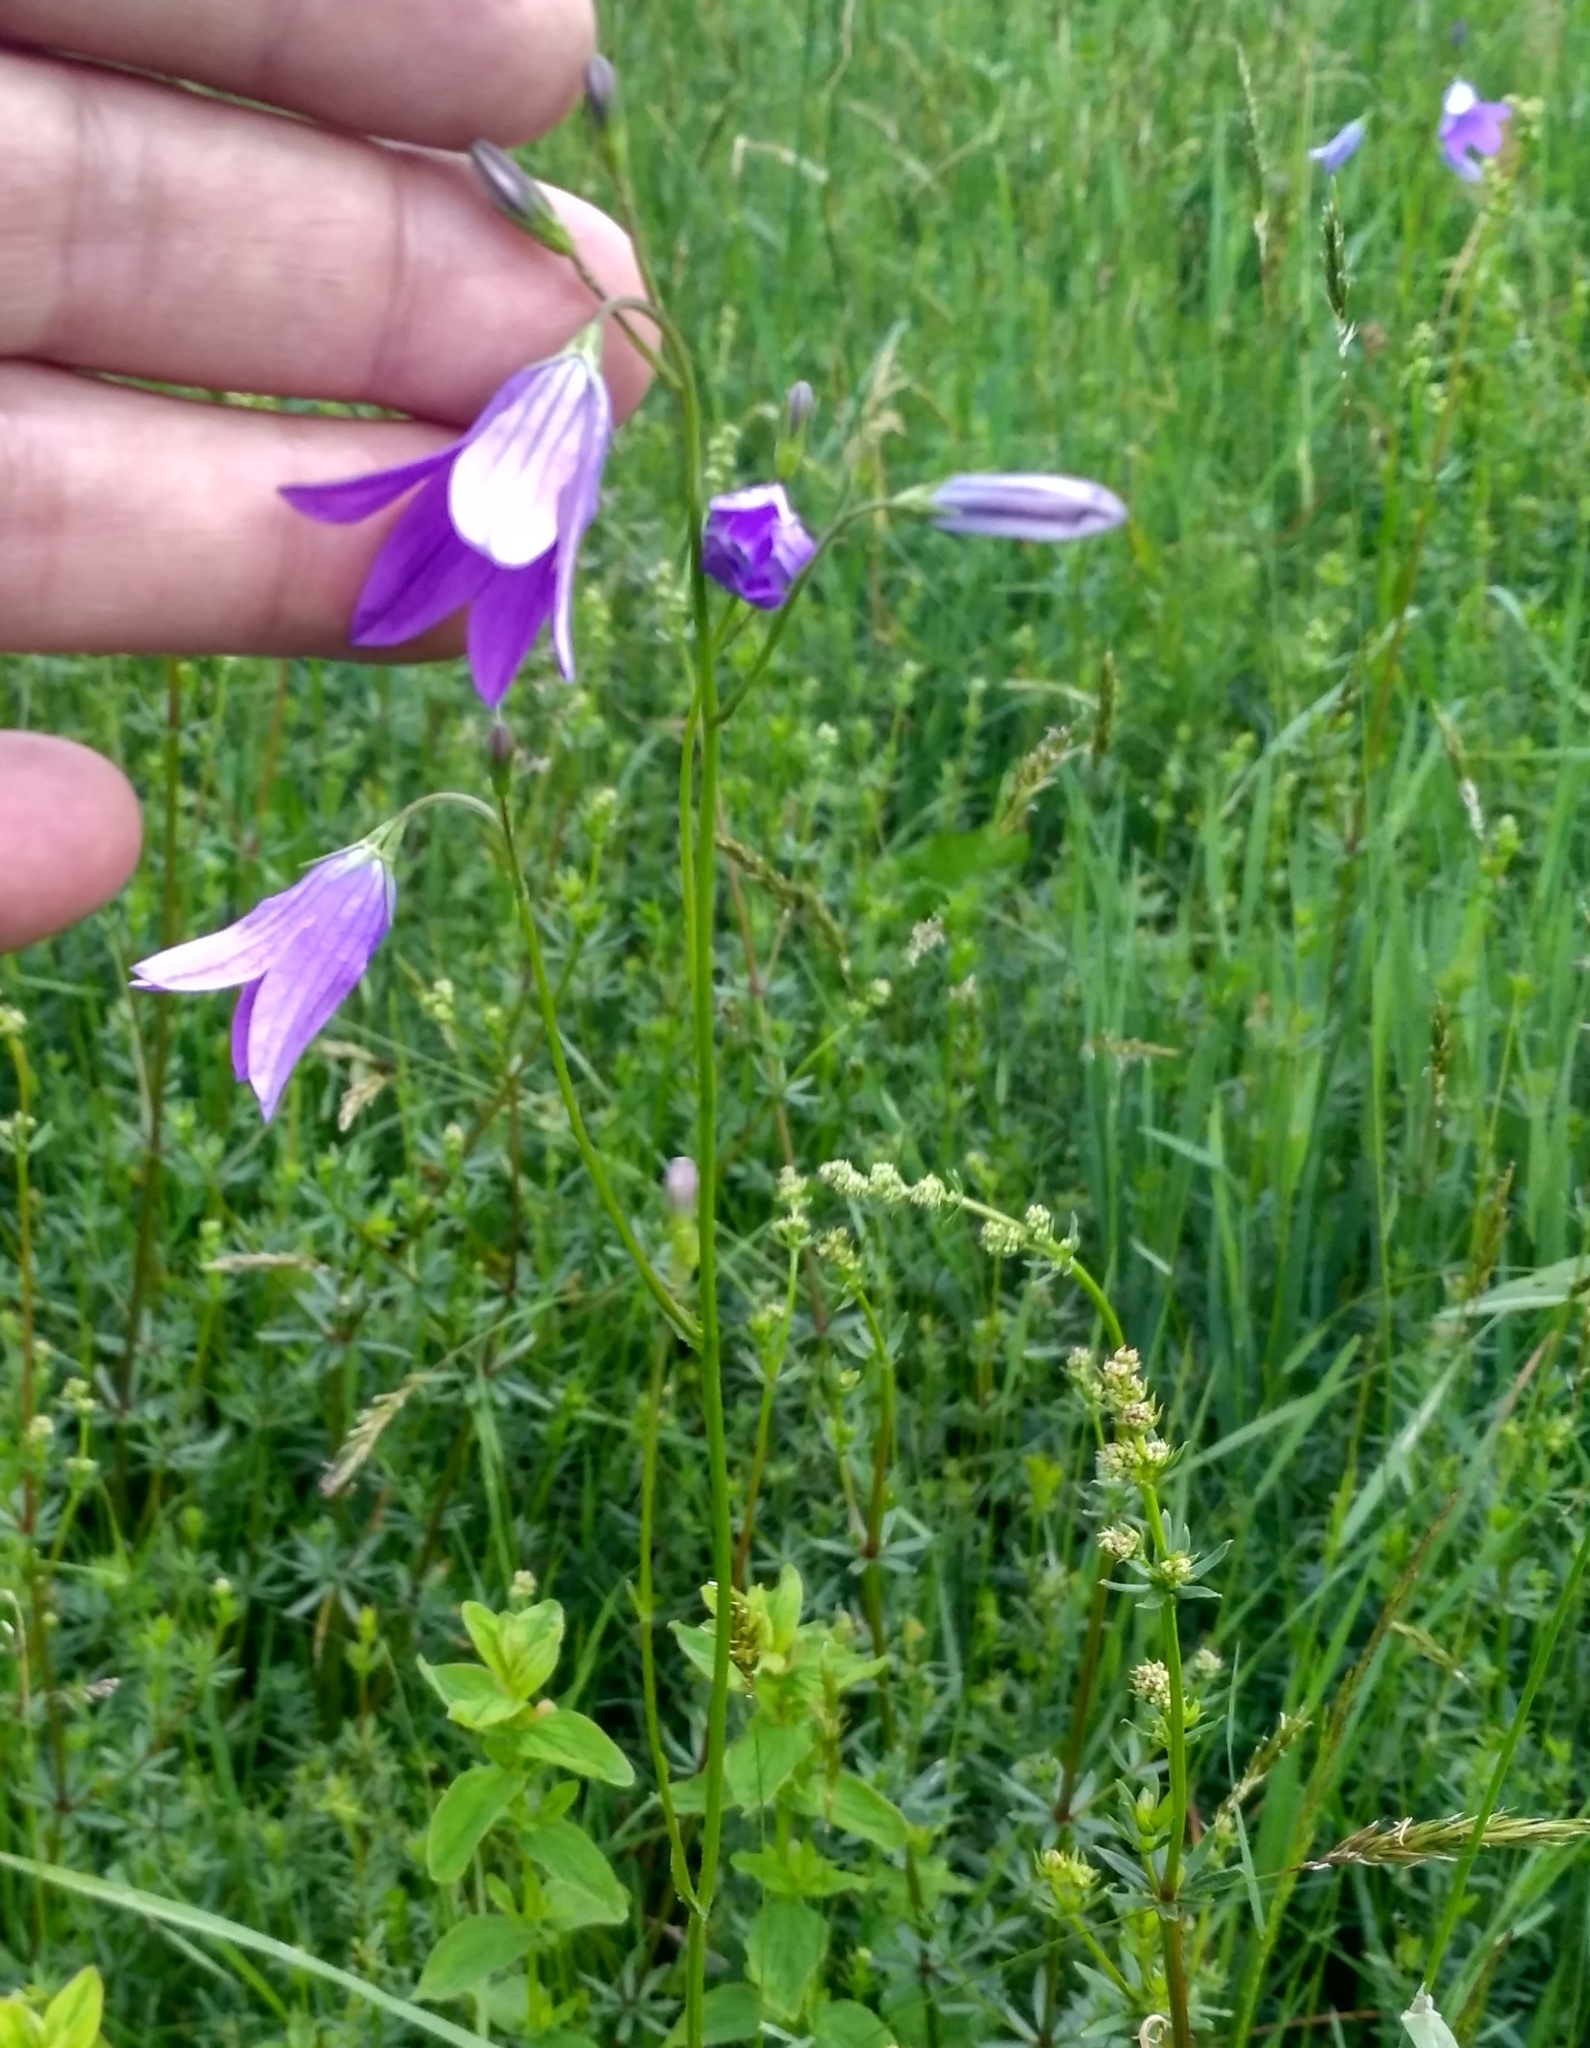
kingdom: Plantae
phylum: Tracheophyta
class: Magnoliopsida
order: Asterales
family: Campanulaceae
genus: Campanula
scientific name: Campanula patula
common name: Spreading bellflower
